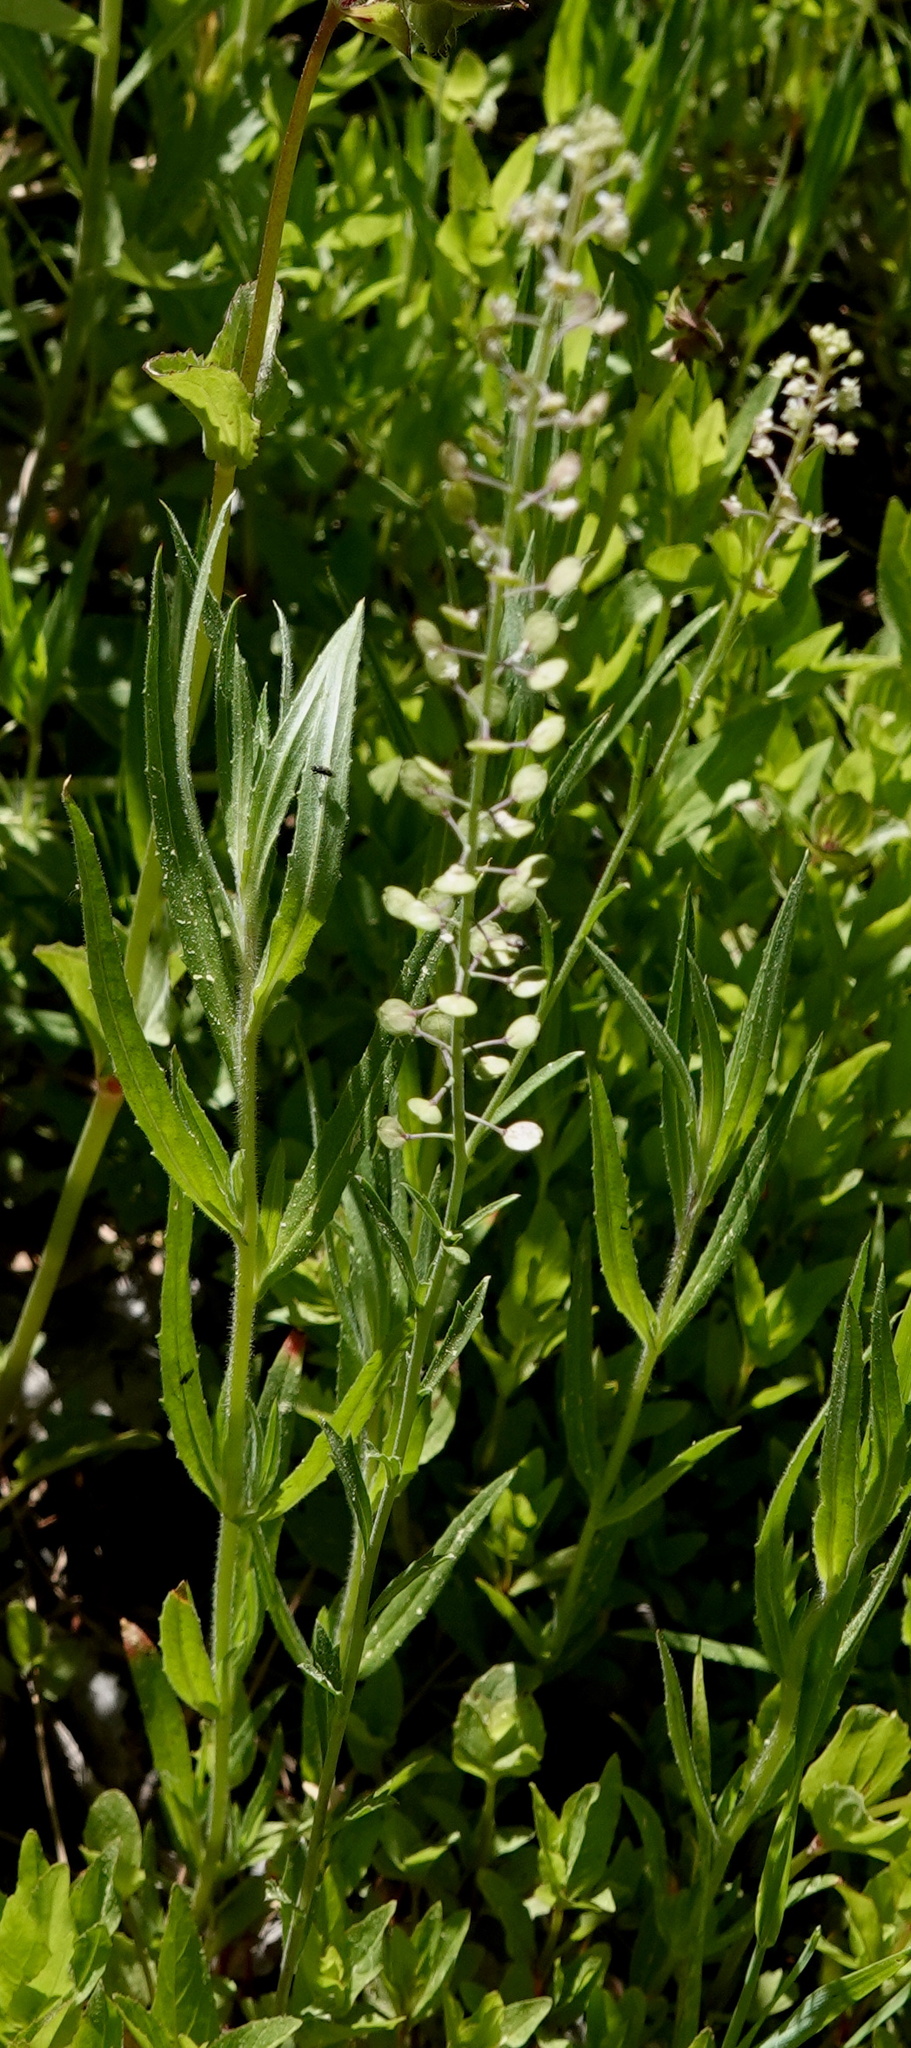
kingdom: Plantae
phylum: Tracheophyta
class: Magnoliopsida
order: Brassicales
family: Brassicaceae
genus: Lepidium
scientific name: Lepidium virginicum
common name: Least pepperwort
